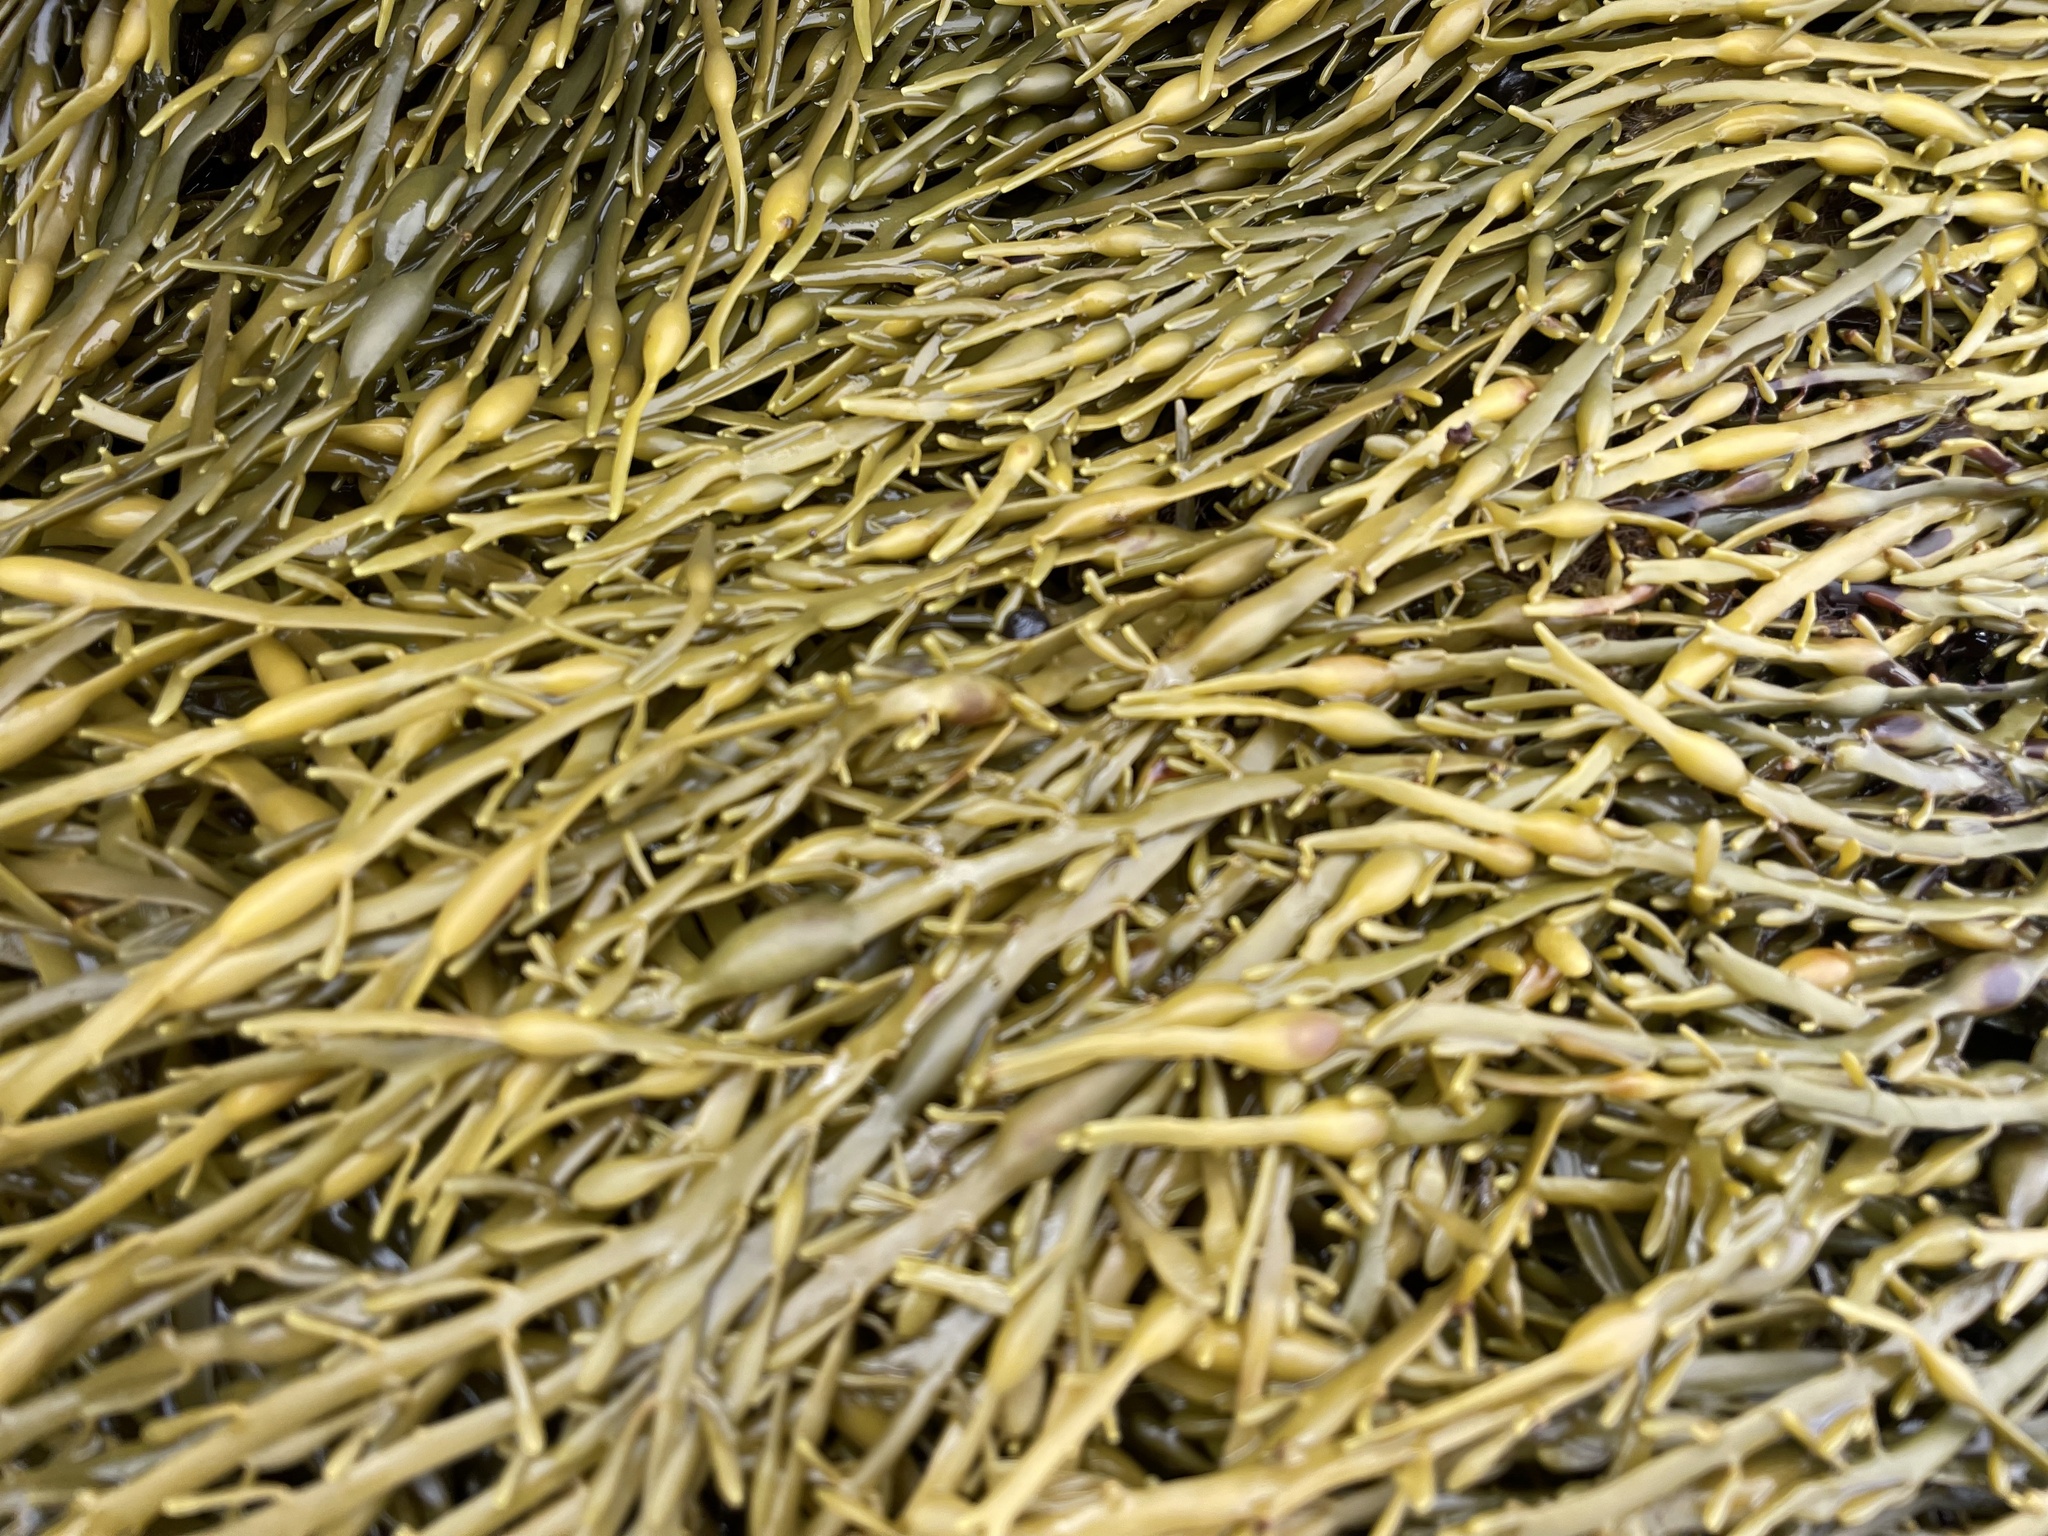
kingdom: Chromista
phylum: Ochrophyta
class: Phaeophyceae
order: Fucales
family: Fucaceae
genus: Ascophyllum
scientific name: Ascophyllum nodosum
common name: Knotted wrack
